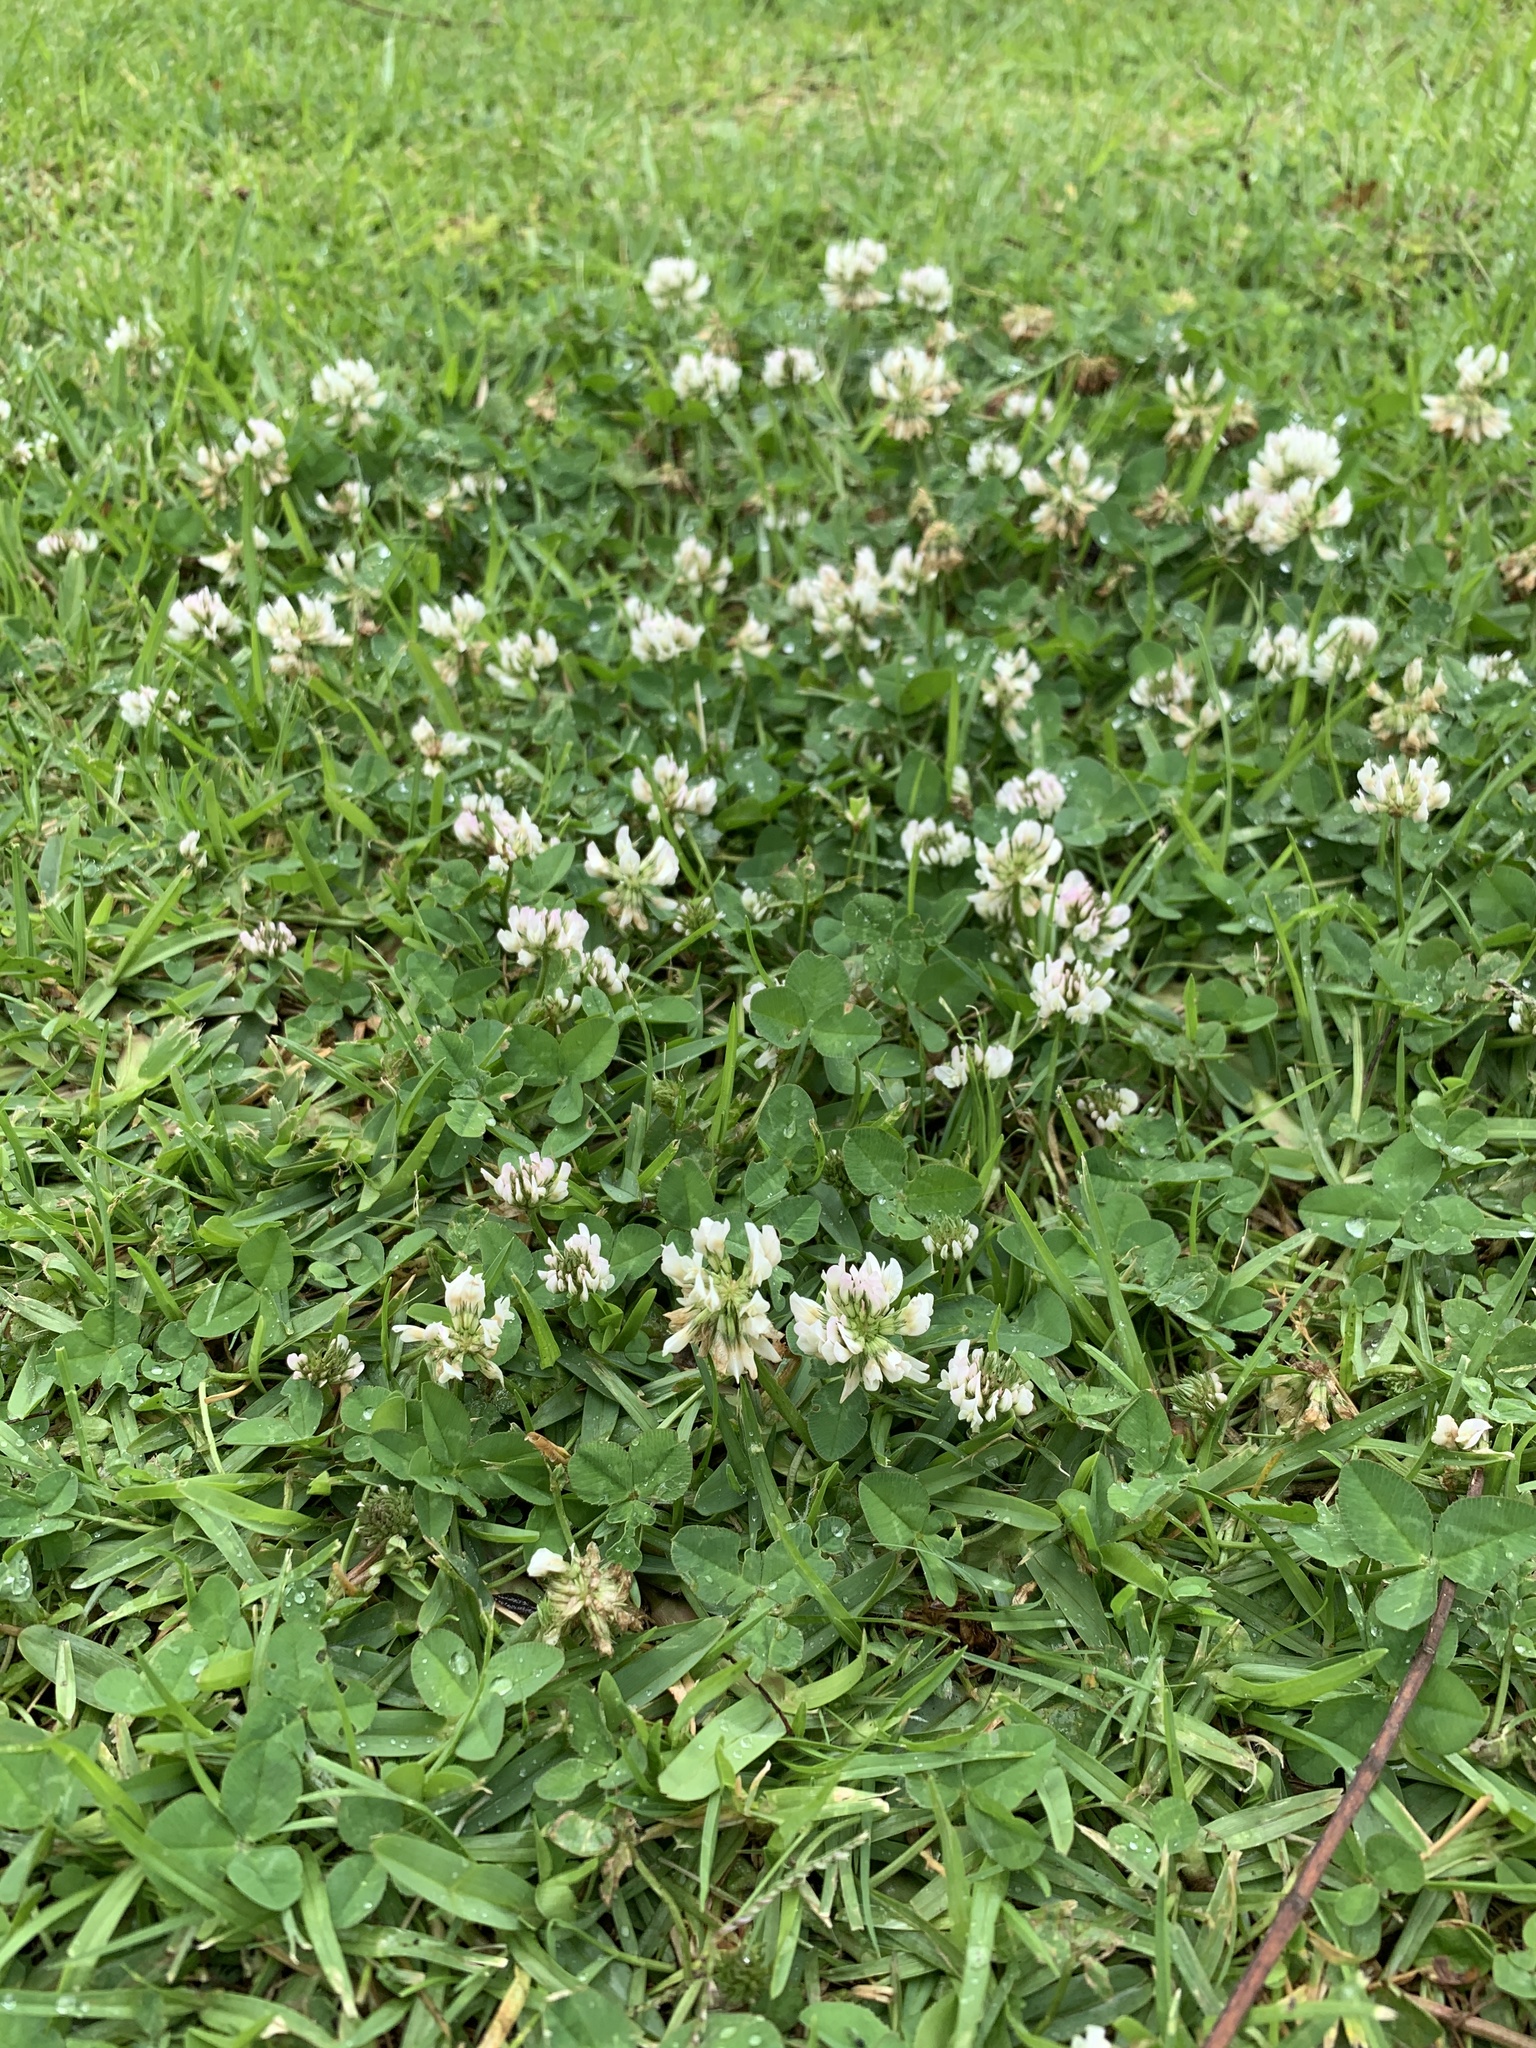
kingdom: Plantae
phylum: Tracheophyta
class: Magnoliopsida
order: Fabales
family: Fabaceae
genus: Trifolium
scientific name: Trifolium repens
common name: White clover
